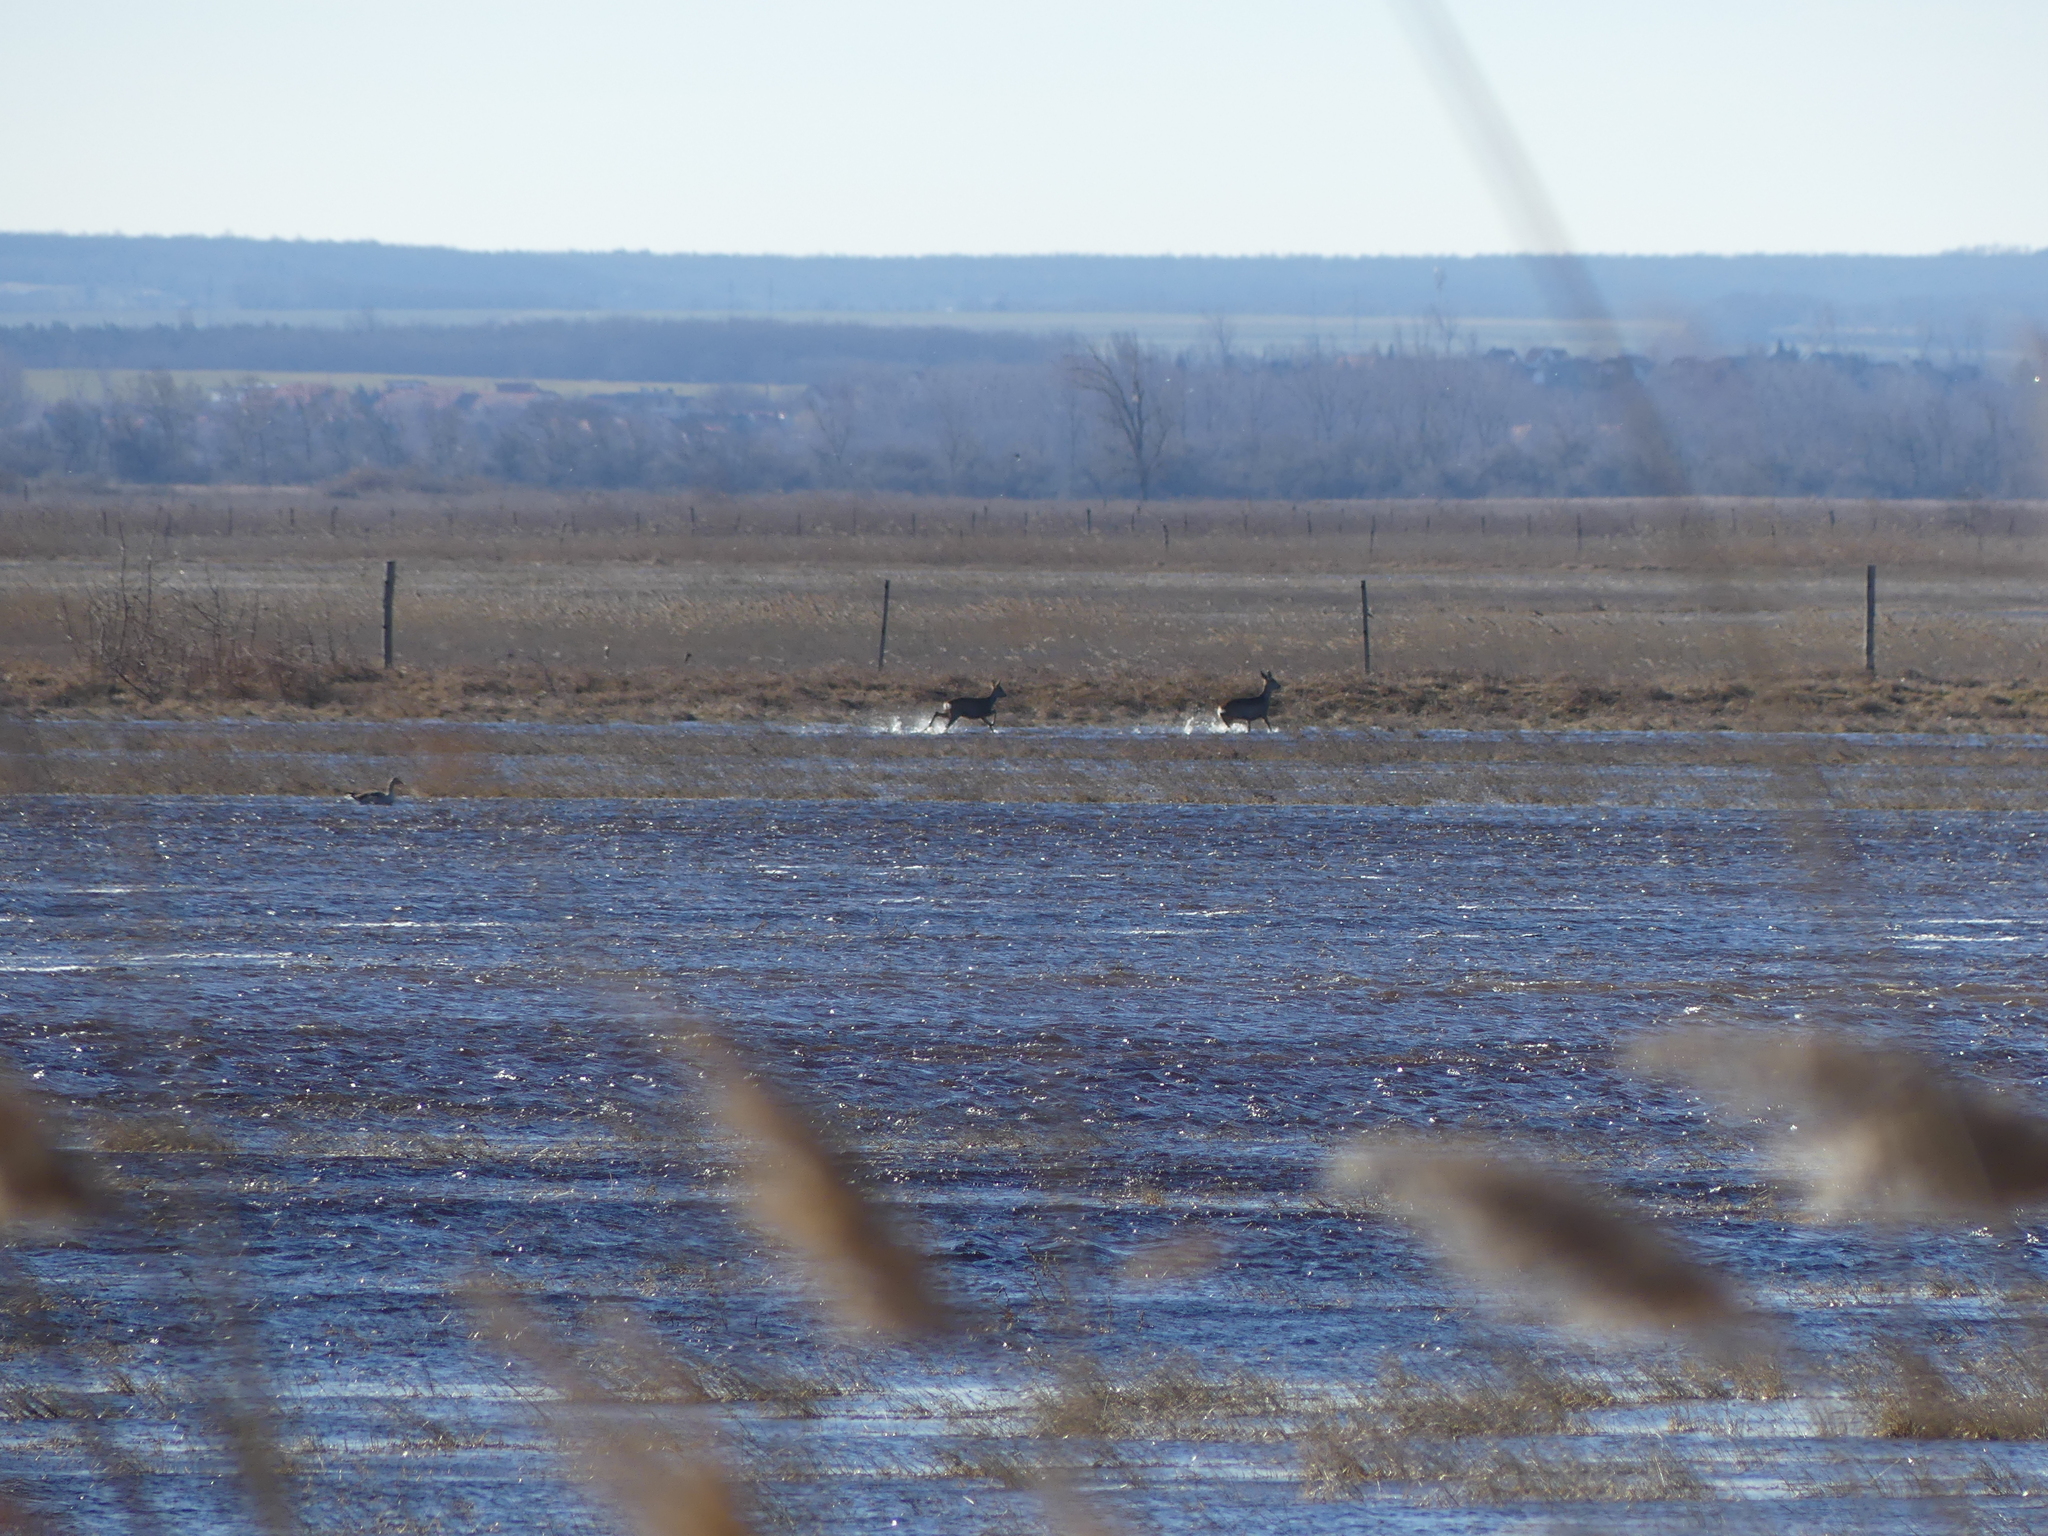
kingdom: Animalia
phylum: Chordata
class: Mammalia
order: Artiodactyla
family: Cervidae
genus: Capreolus
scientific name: Capreolus capreolus
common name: Western roe deer
